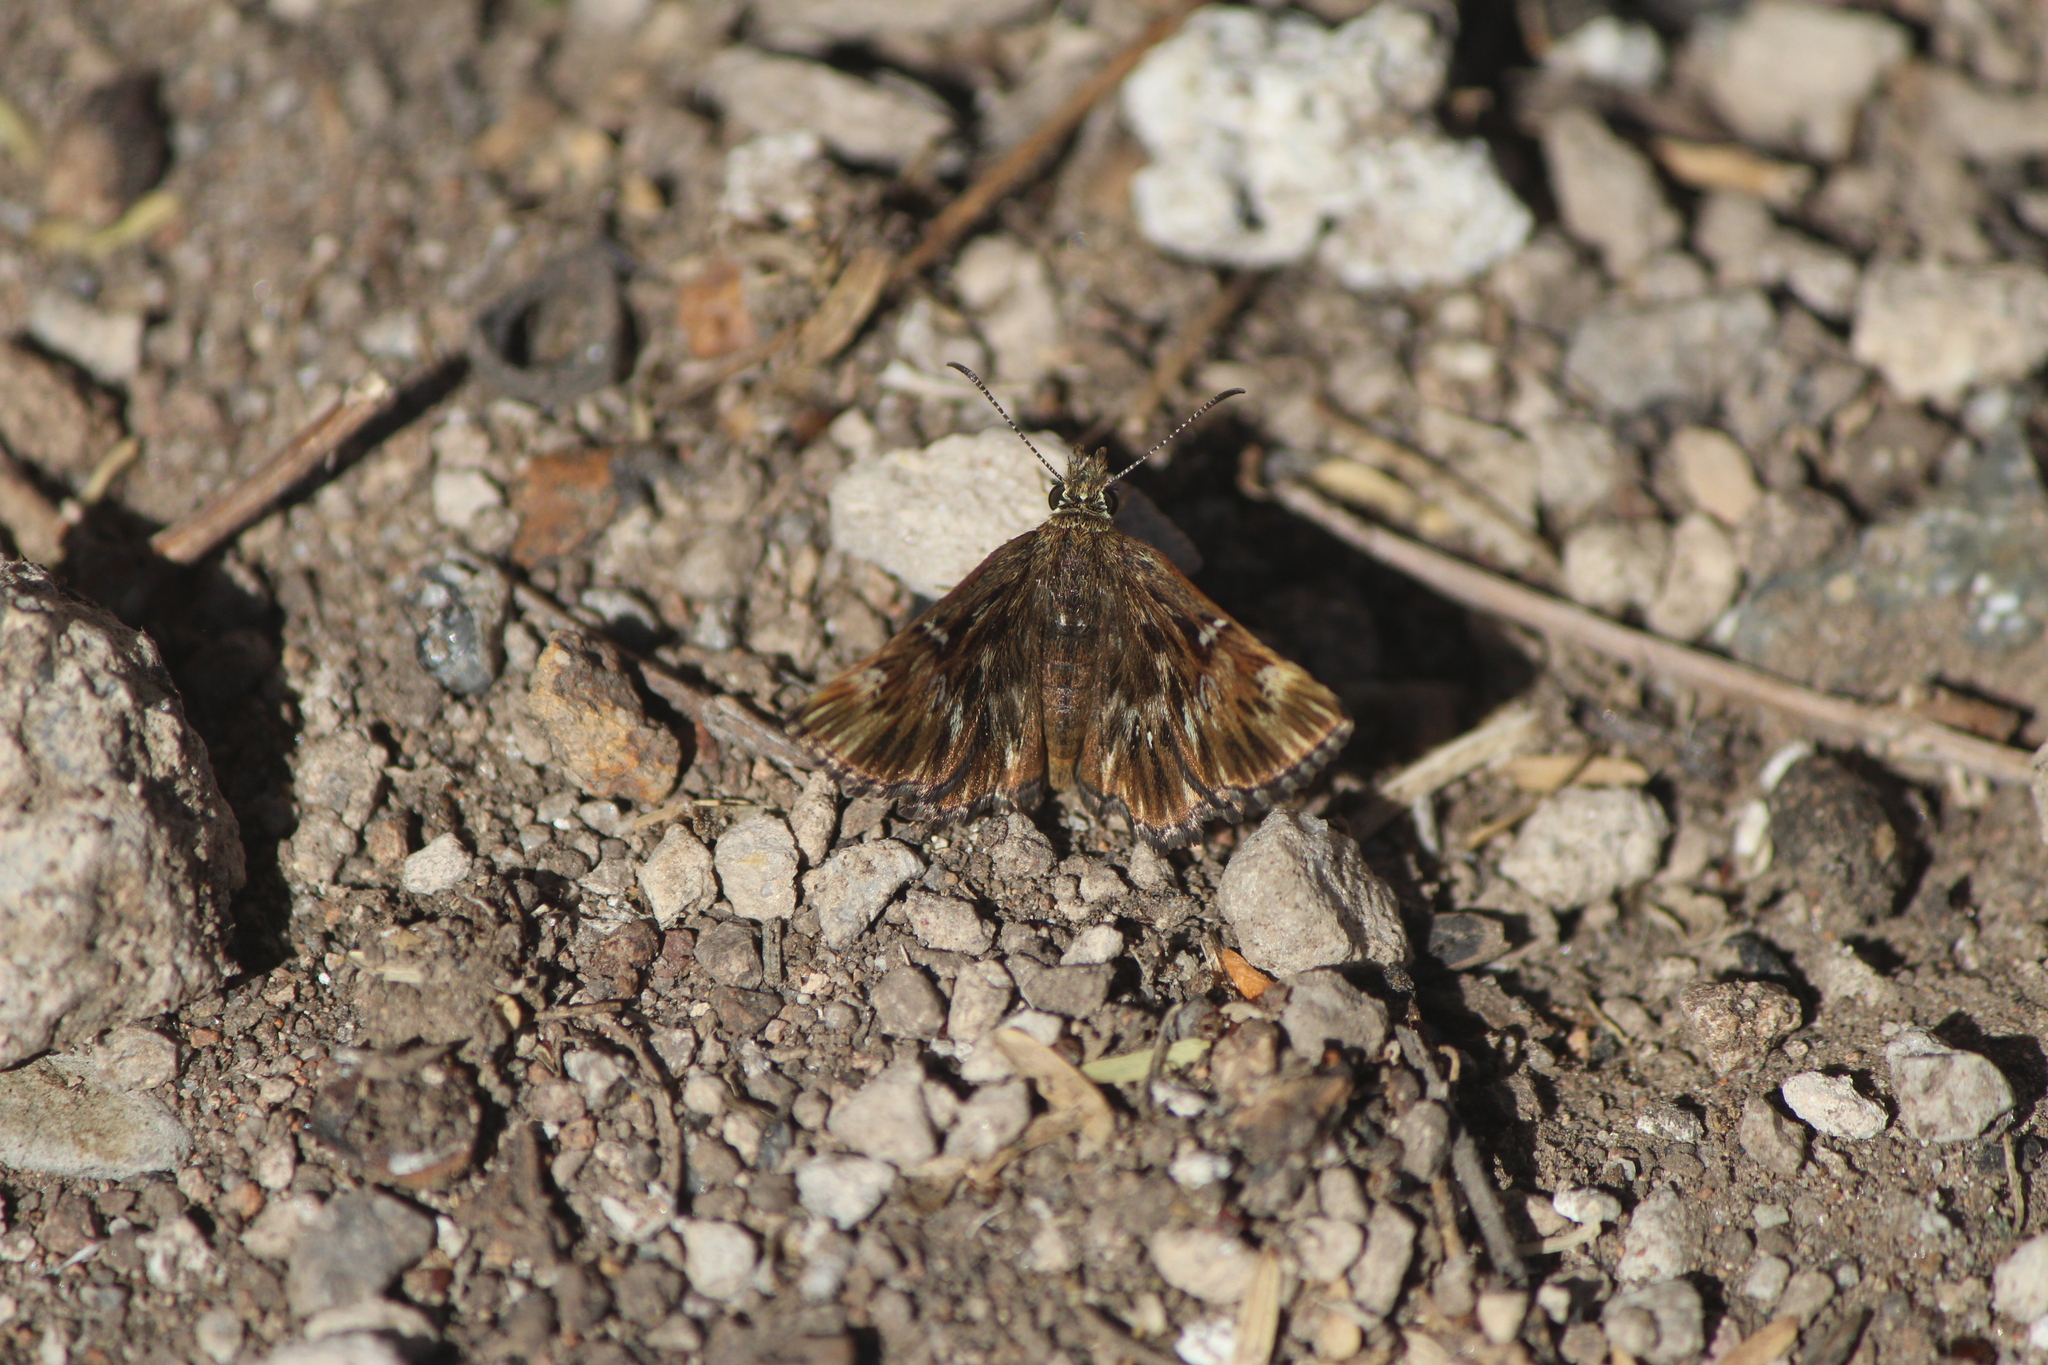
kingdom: Animalia
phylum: Arthropoda
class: Insecta
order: Lepidoptera
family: Hesperiidae
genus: Celotes
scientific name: Celotes spurcus
